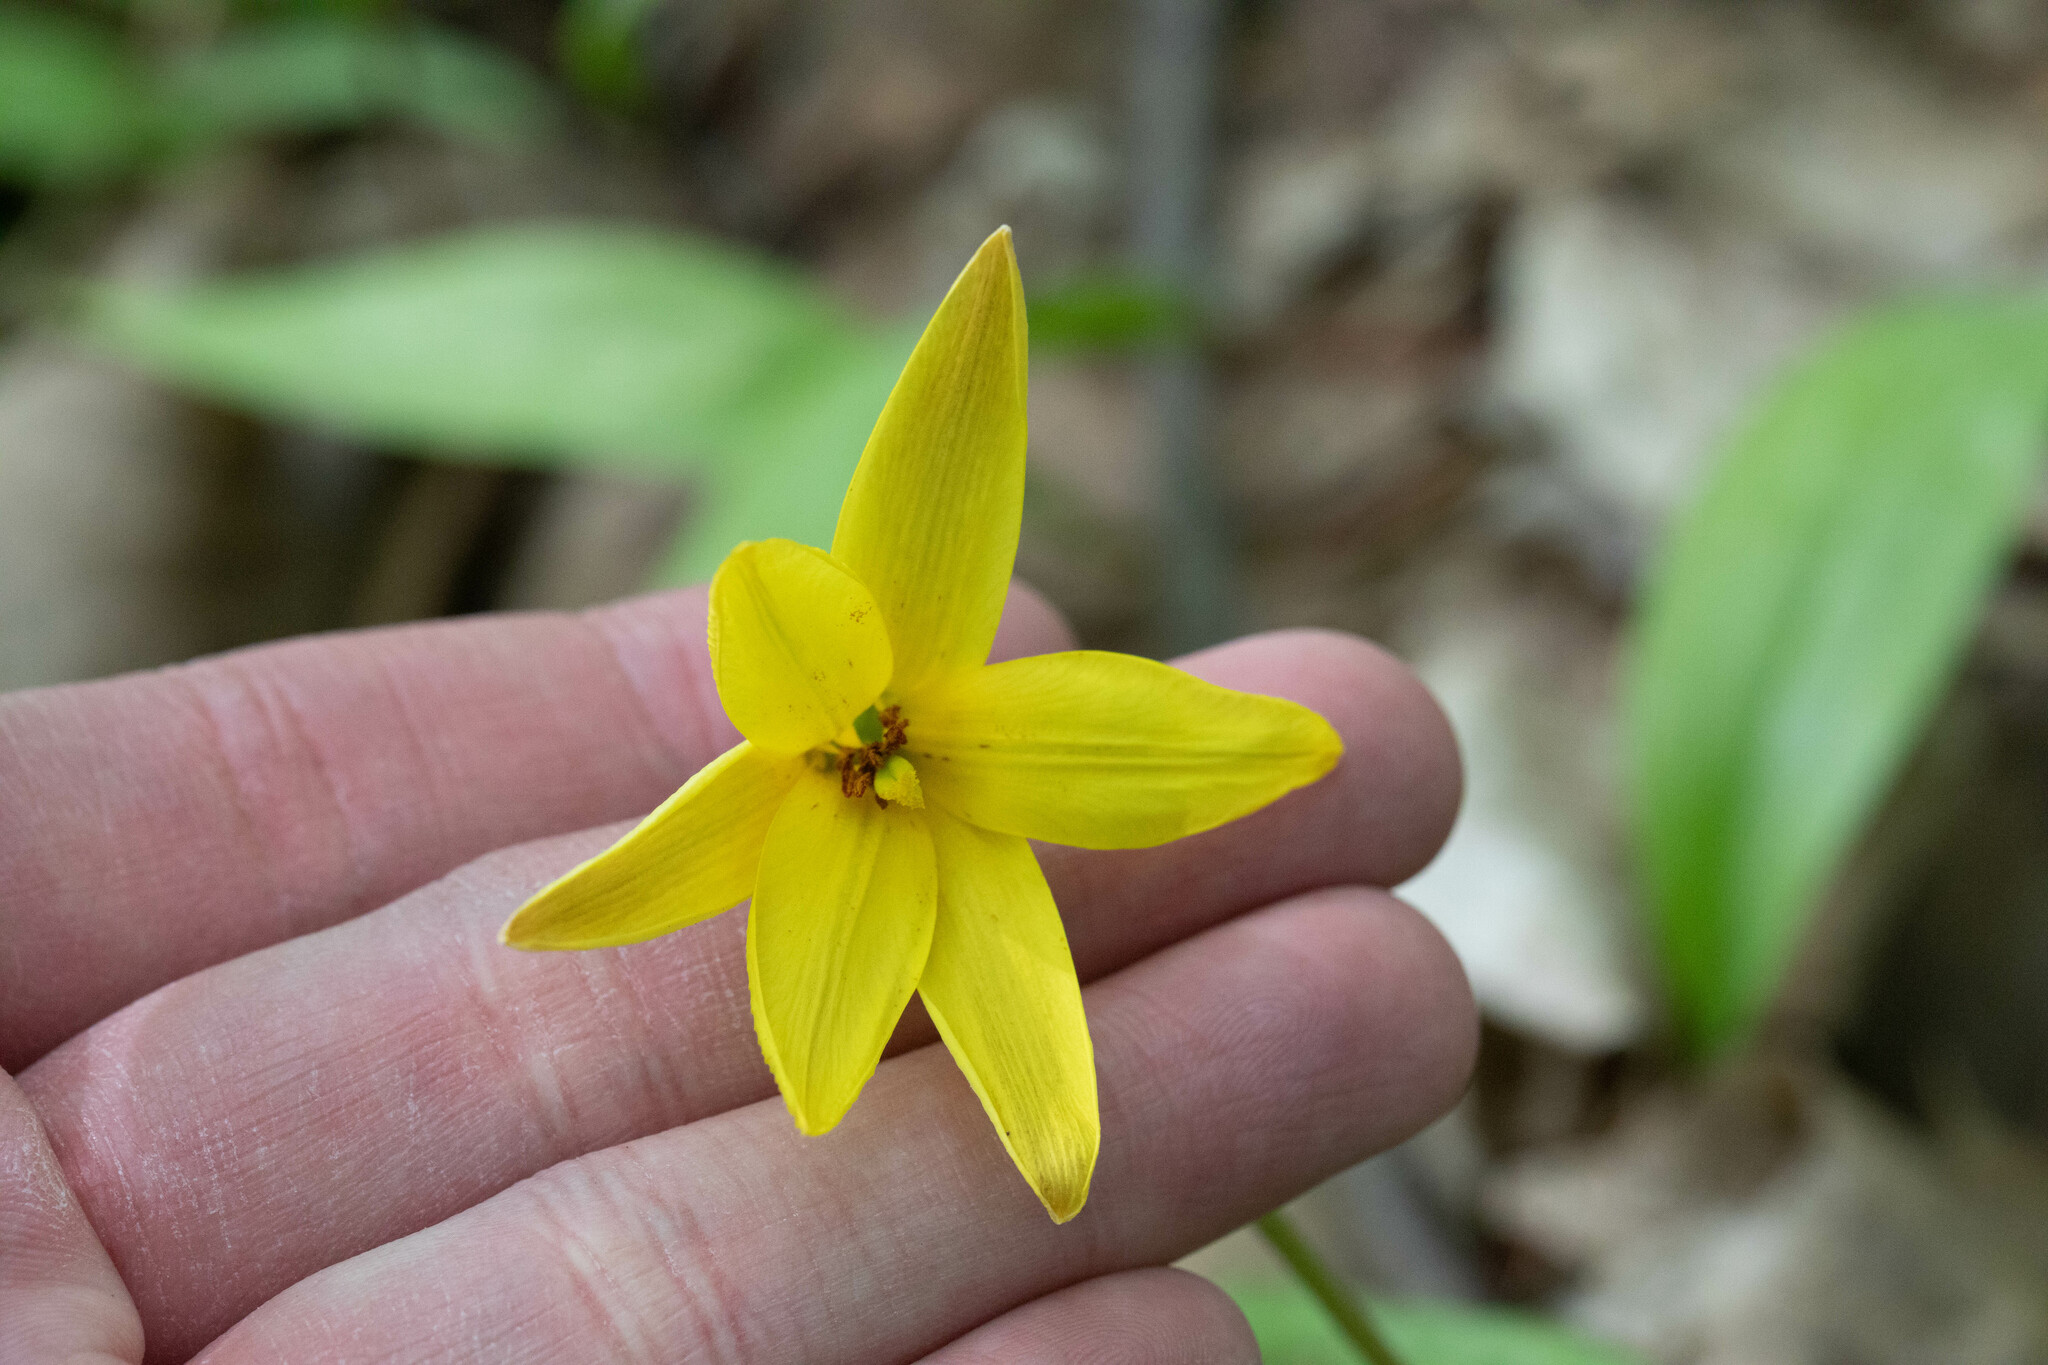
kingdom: Plantae
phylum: Tracheophyta
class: Liliopsida
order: Liliales
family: Liliaceae
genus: Erythronium
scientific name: Erythronium americanum
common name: Yellow adder's-tongue
